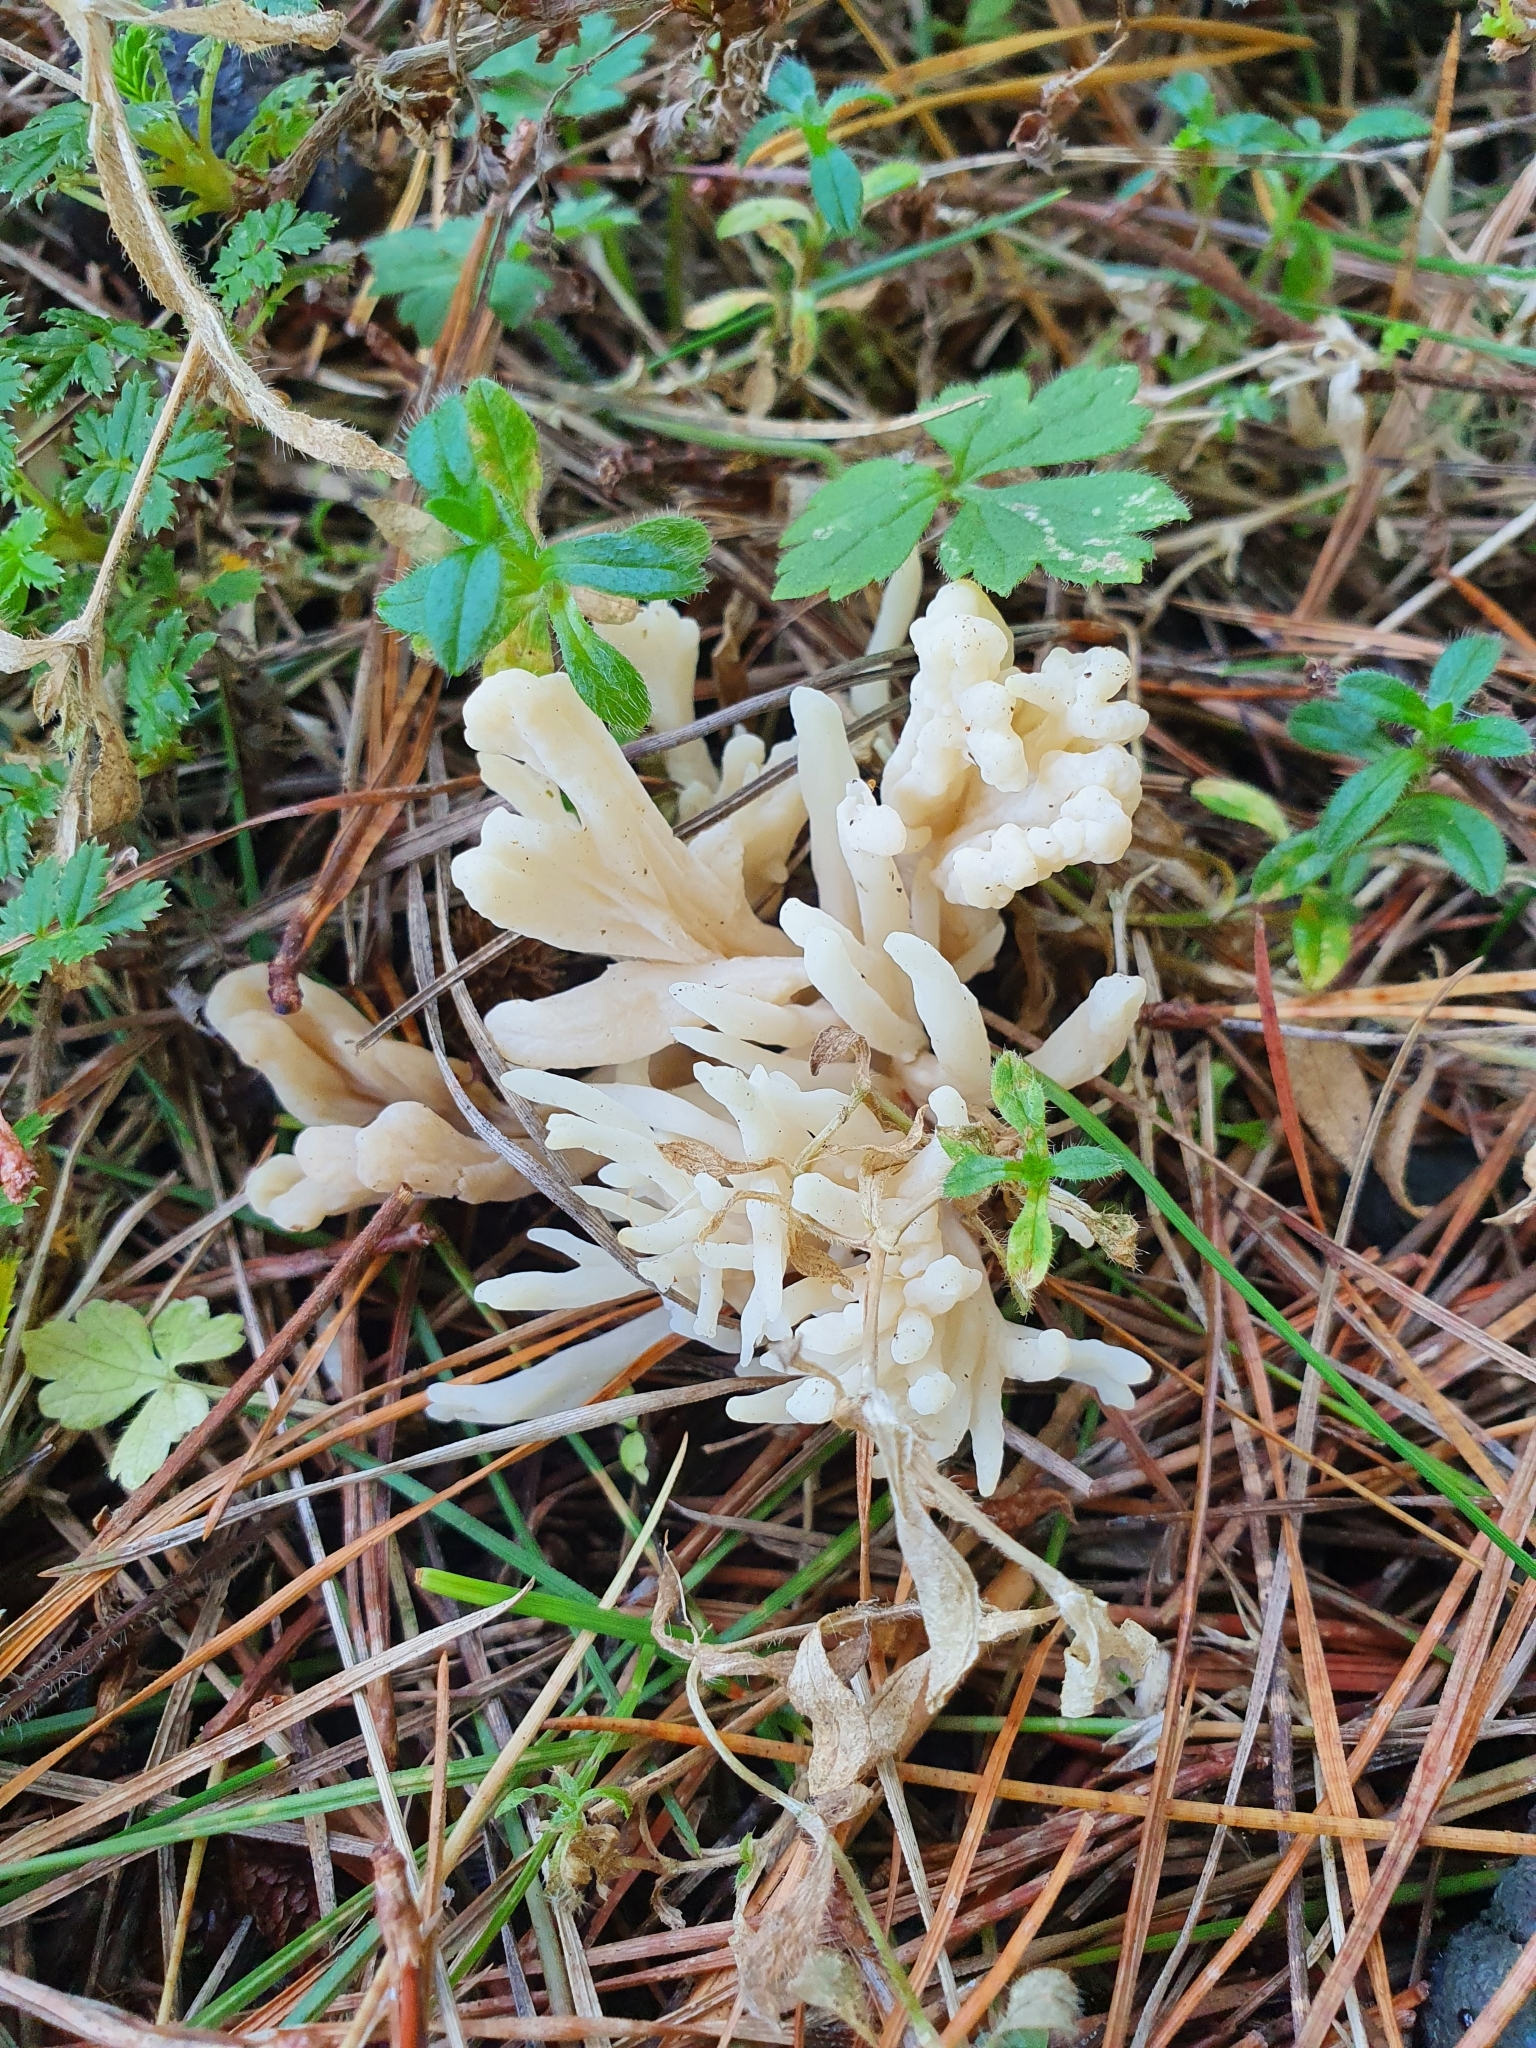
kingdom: Fungi
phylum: Basidiomycota
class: Agaricomycetes
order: Cantharellales
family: Hydnaceae
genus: Clavulina
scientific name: Clavulina rugosa
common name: Wrinkled club
